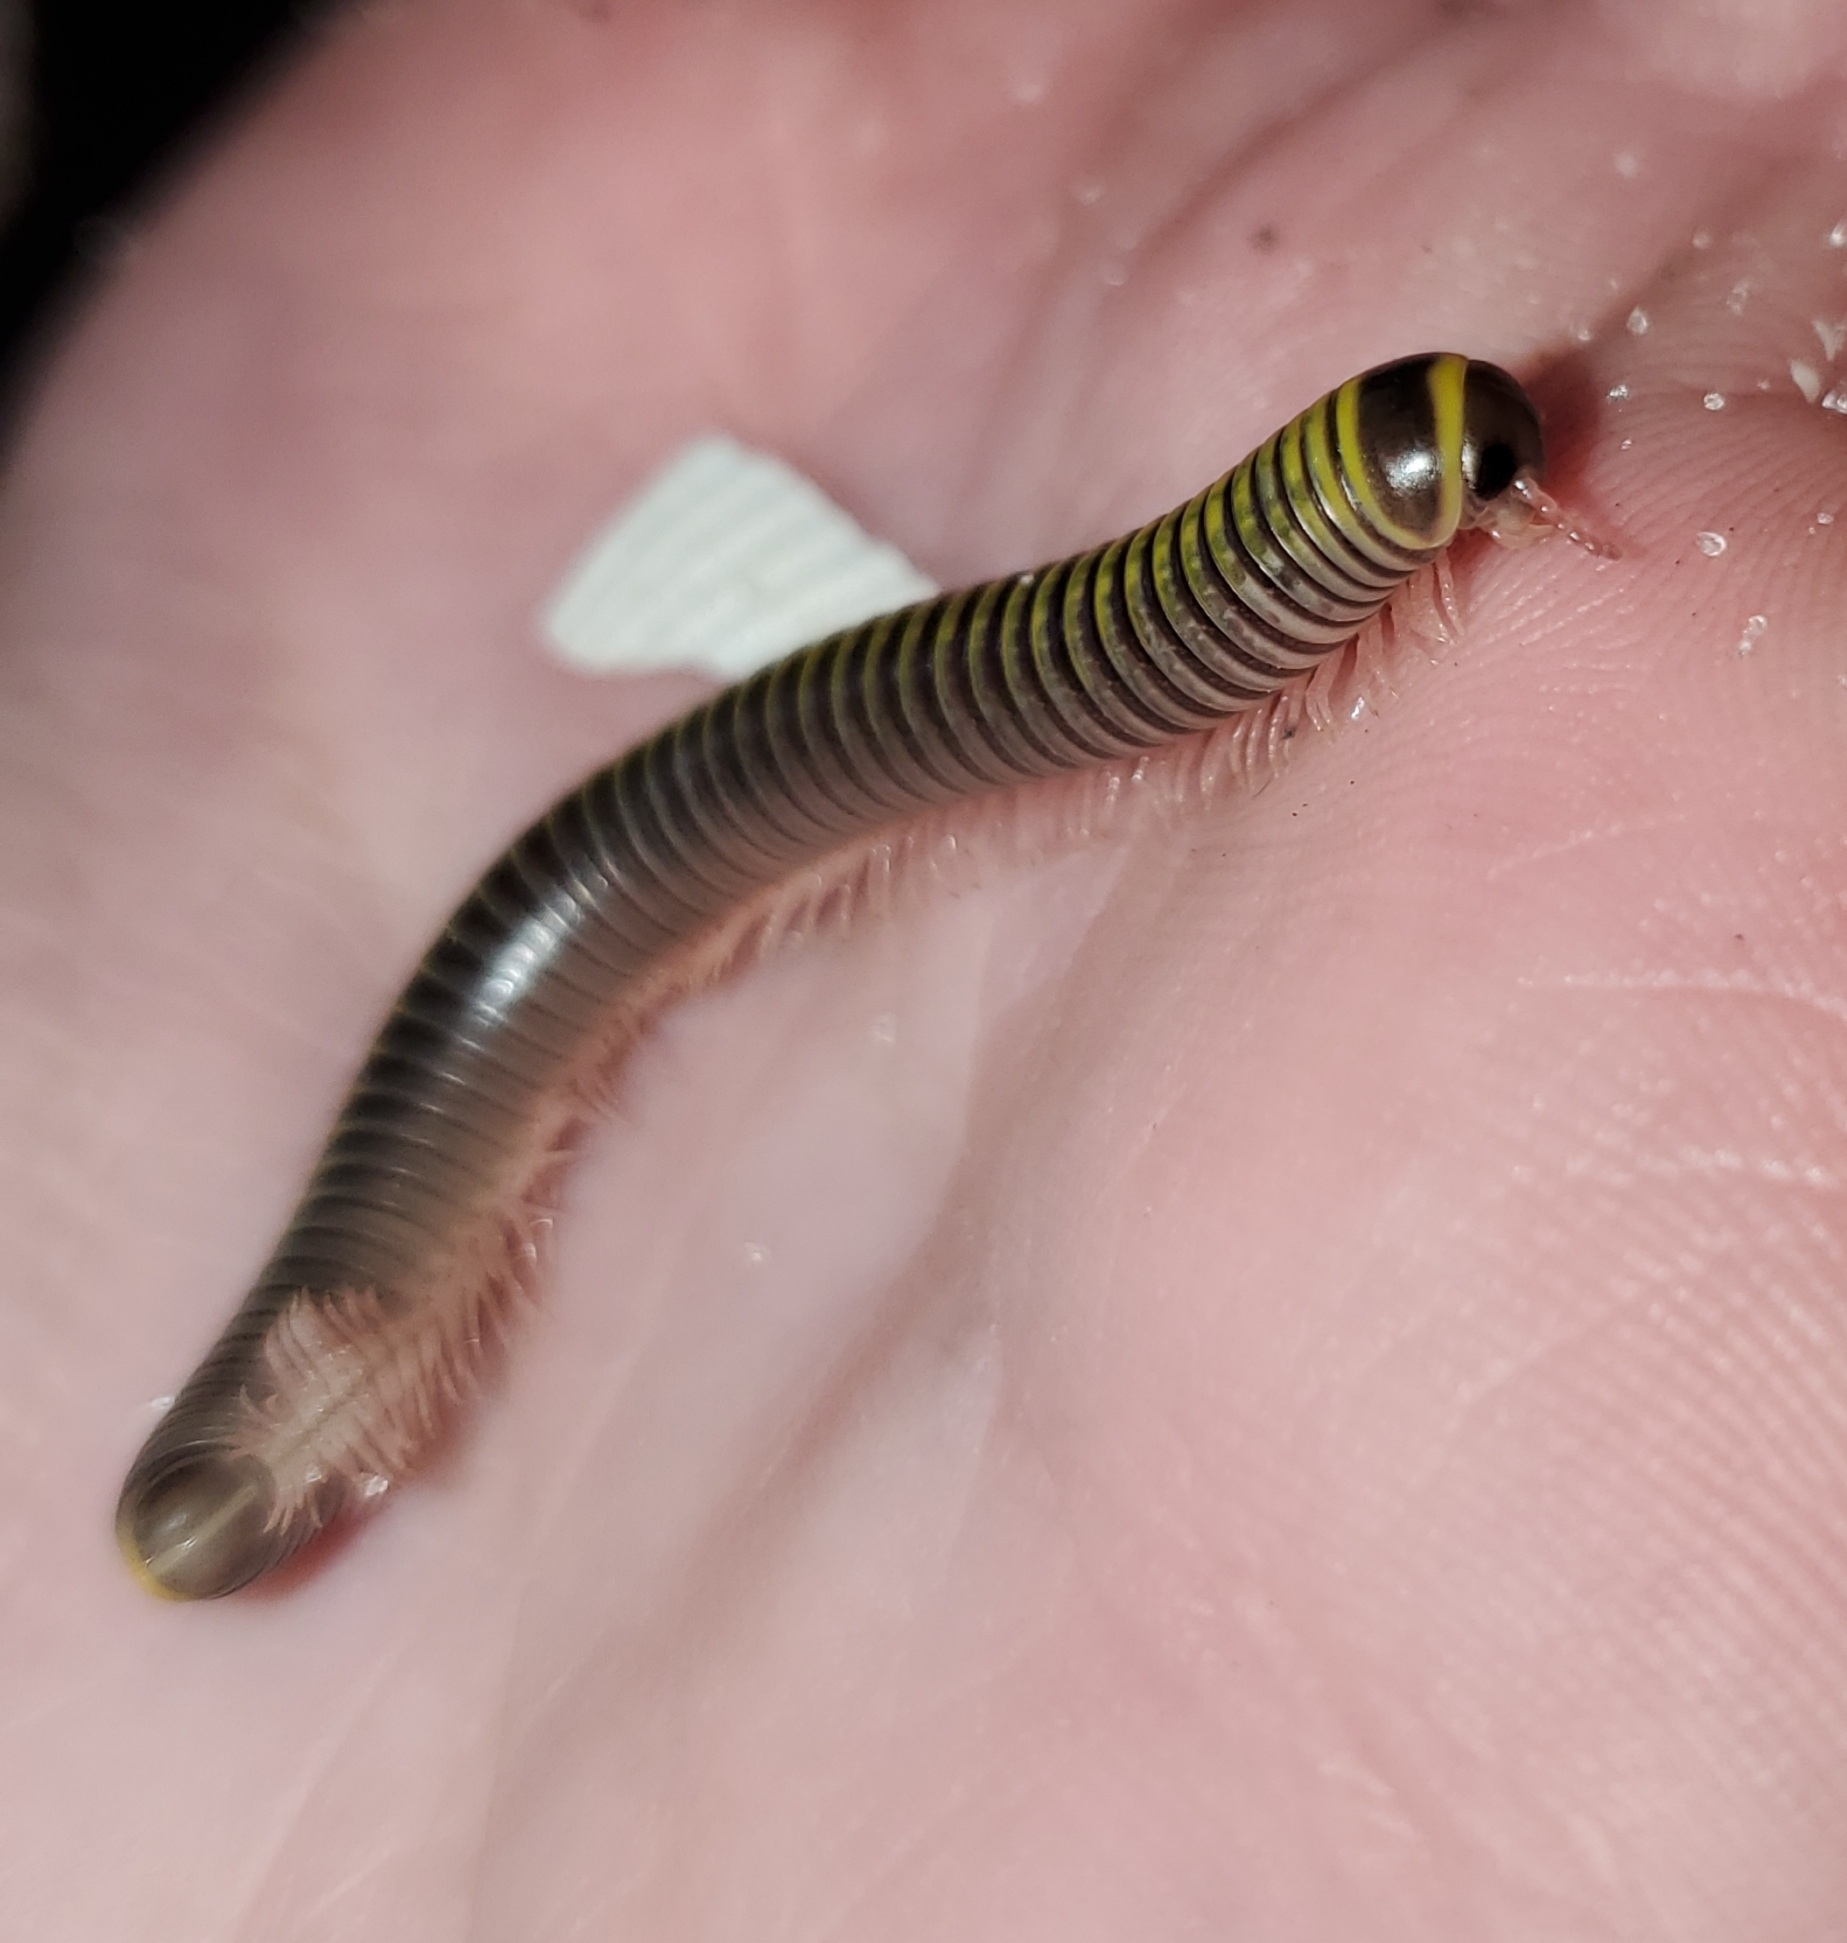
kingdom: Animalia
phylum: Arthropoda
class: Diplopoda
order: Spirobolida
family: Rhinocricidae
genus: Anadenobolus
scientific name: Anadenobolus monilicornis
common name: Caribbean millipede
